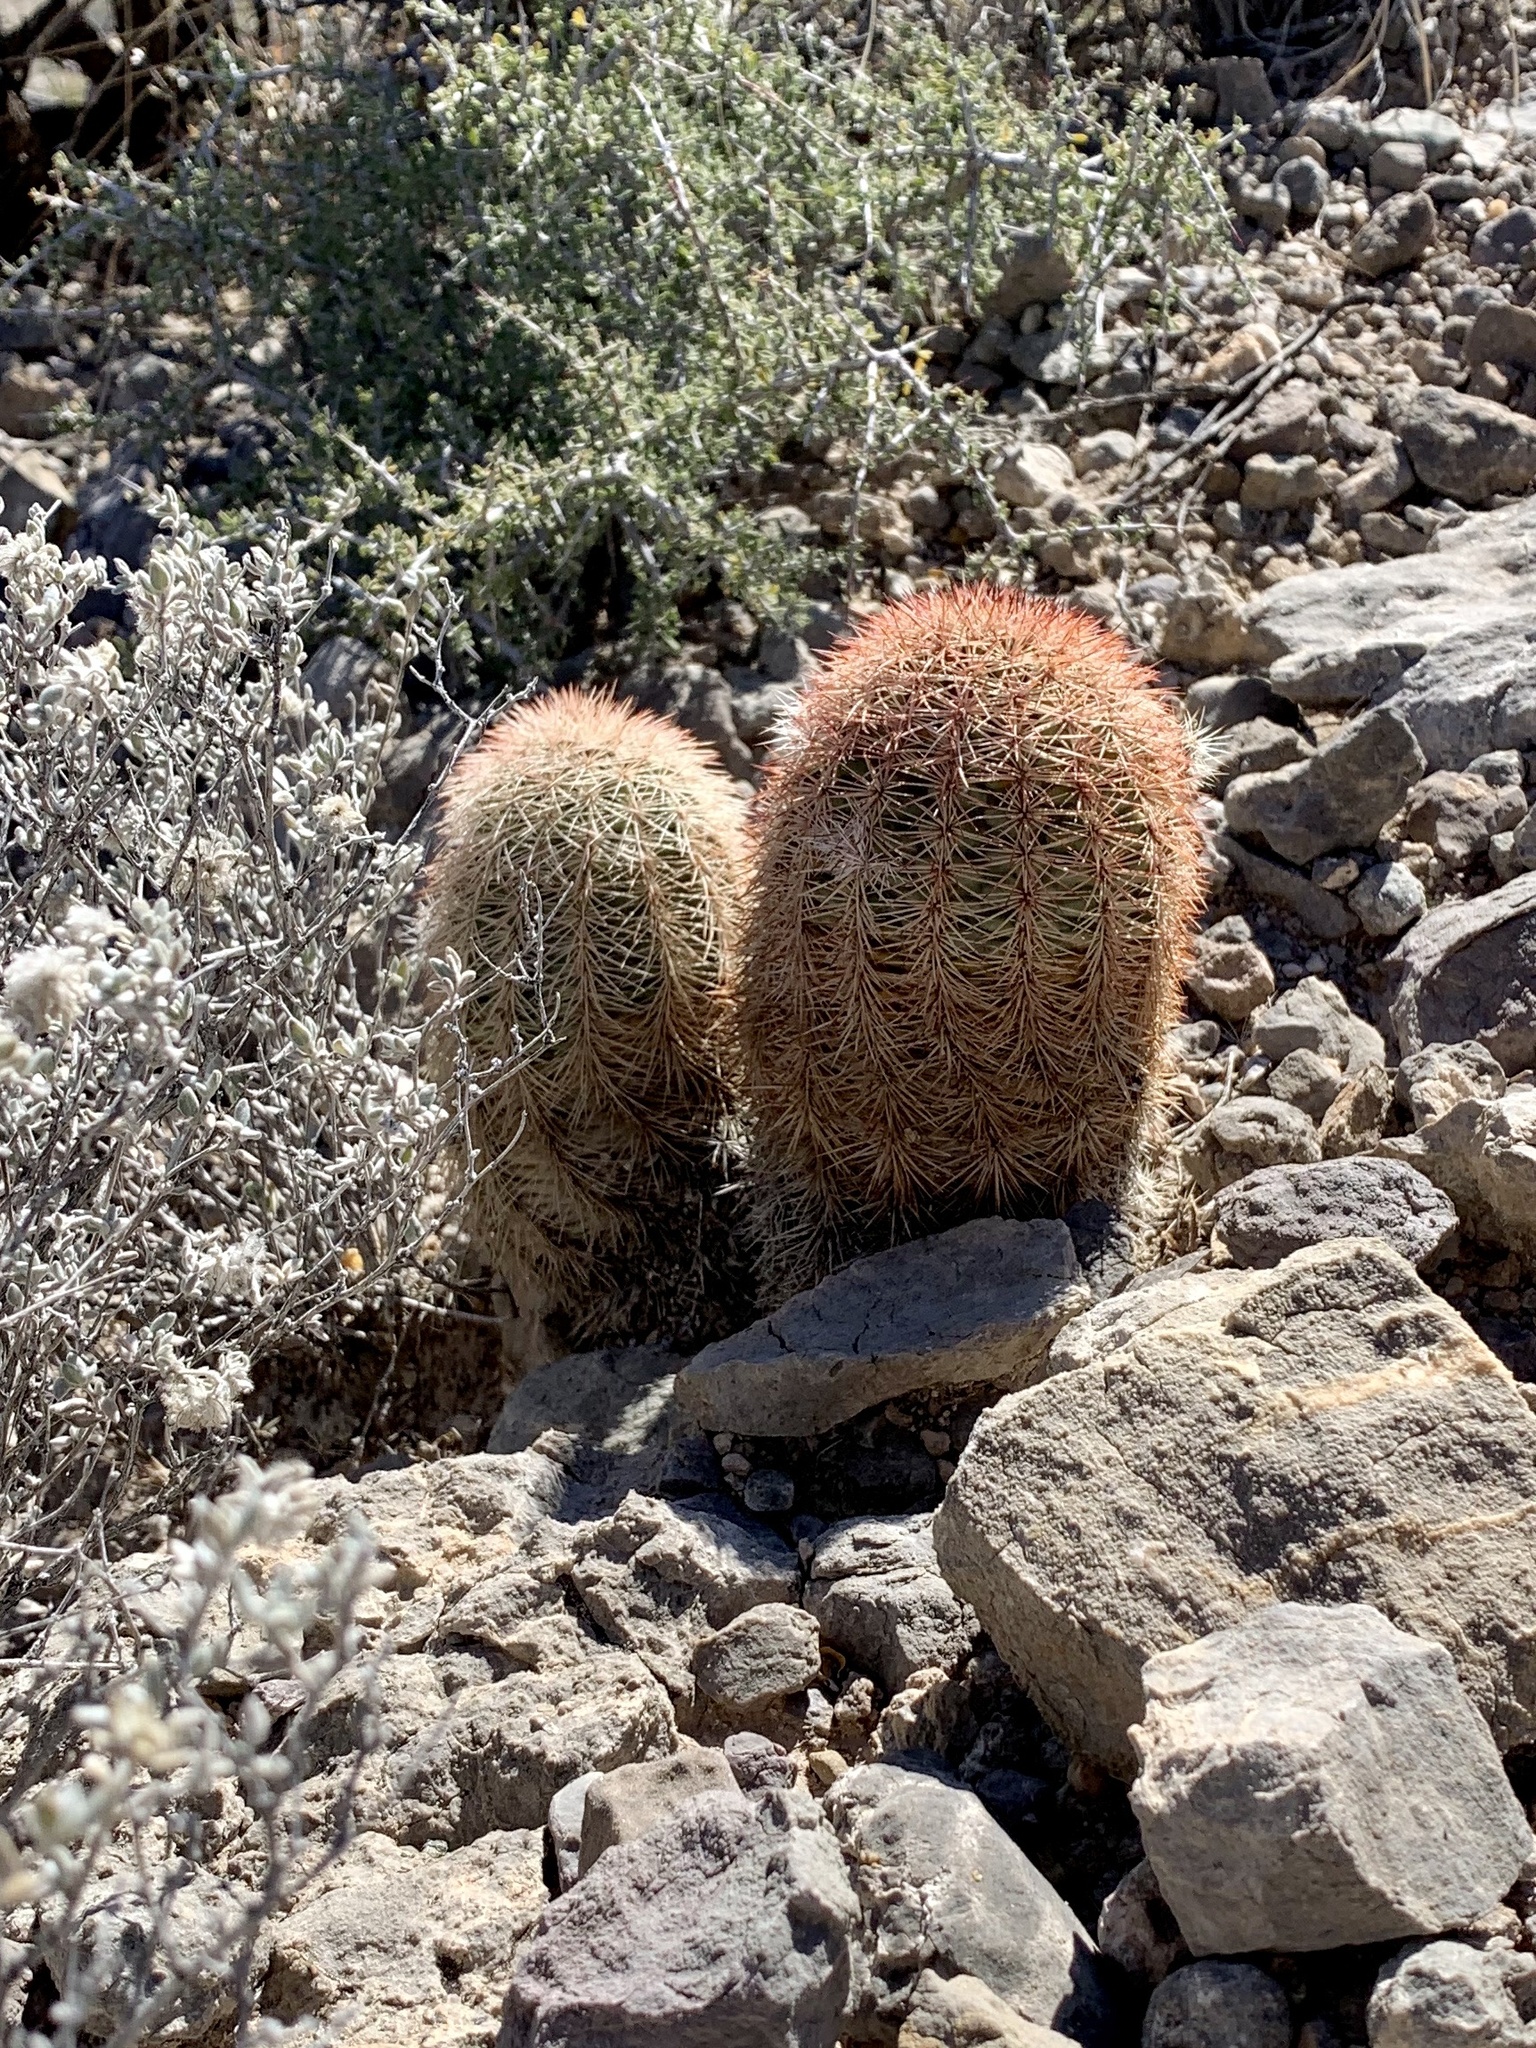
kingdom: Plantae
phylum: Tracheophyta
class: Magnoliopsida
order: Caryophyllales
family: Cactaceae
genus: Echinocereus
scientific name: Echinocereus dasyacanthus
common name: Spiny hedgehog cactus
